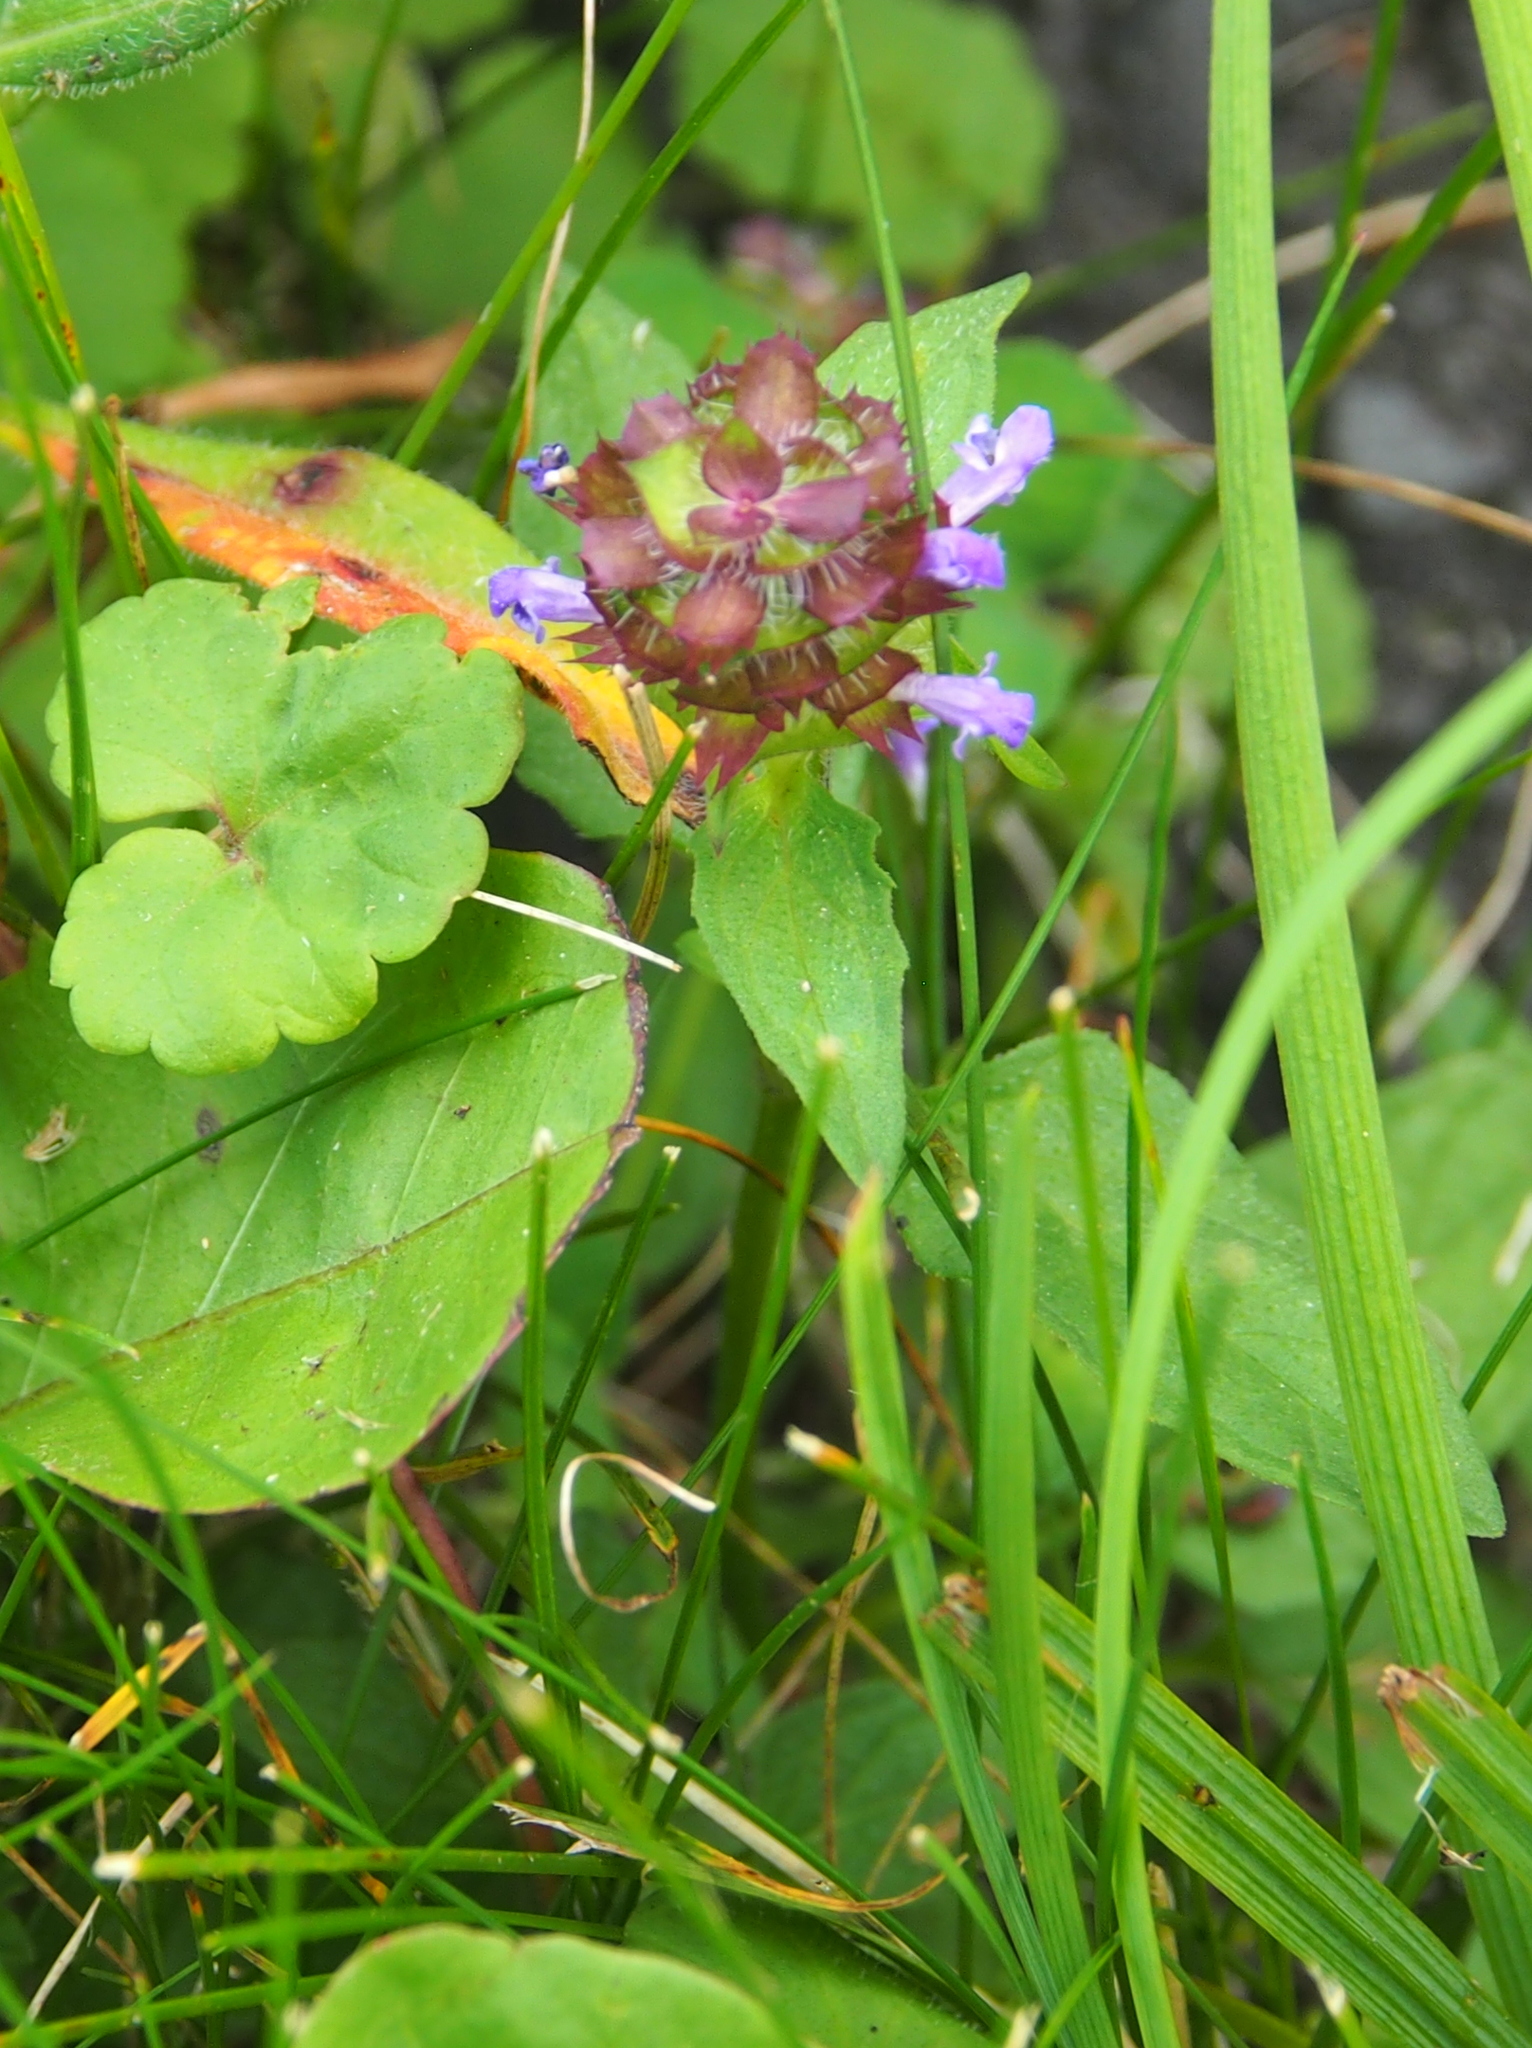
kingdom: Plantae
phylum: Tracheophyta
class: Magnoliopsida
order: Lamiales
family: Lamiaceae
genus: Prunella
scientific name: Prunella vulgaris
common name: Heal-all
